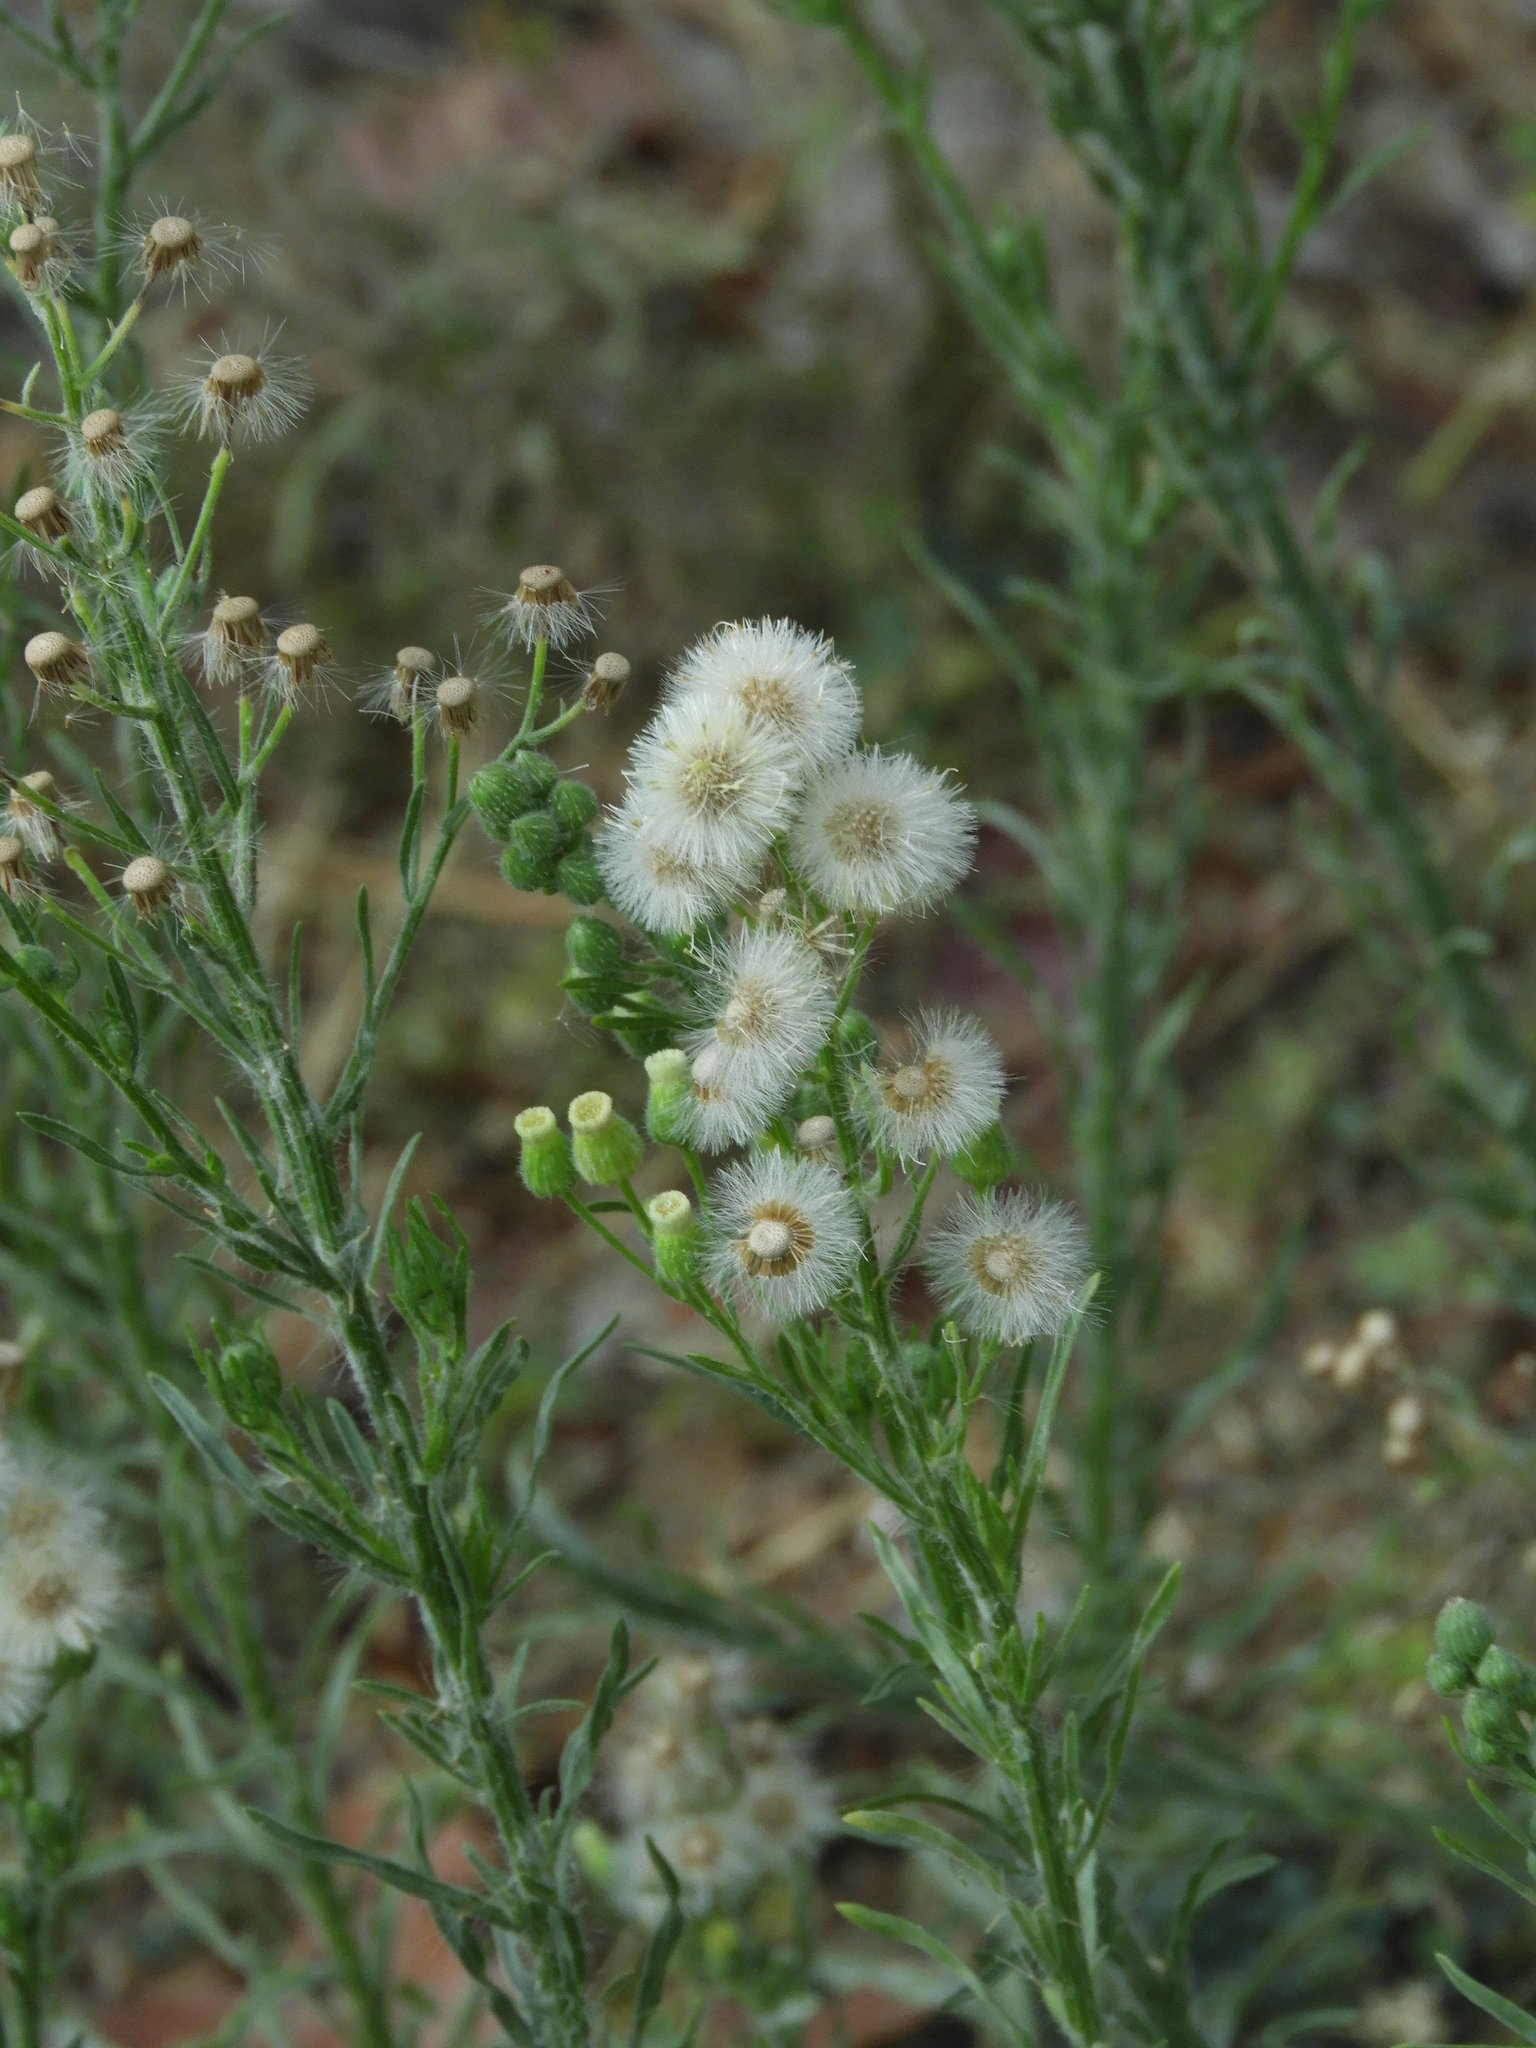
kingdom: Plantae
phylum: Tracheophyta
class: Magnoliopsida
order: Asterales
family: Asteraceae
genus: Erigeron
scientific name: Erigeron bonariensis
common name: Argentine fleabane
